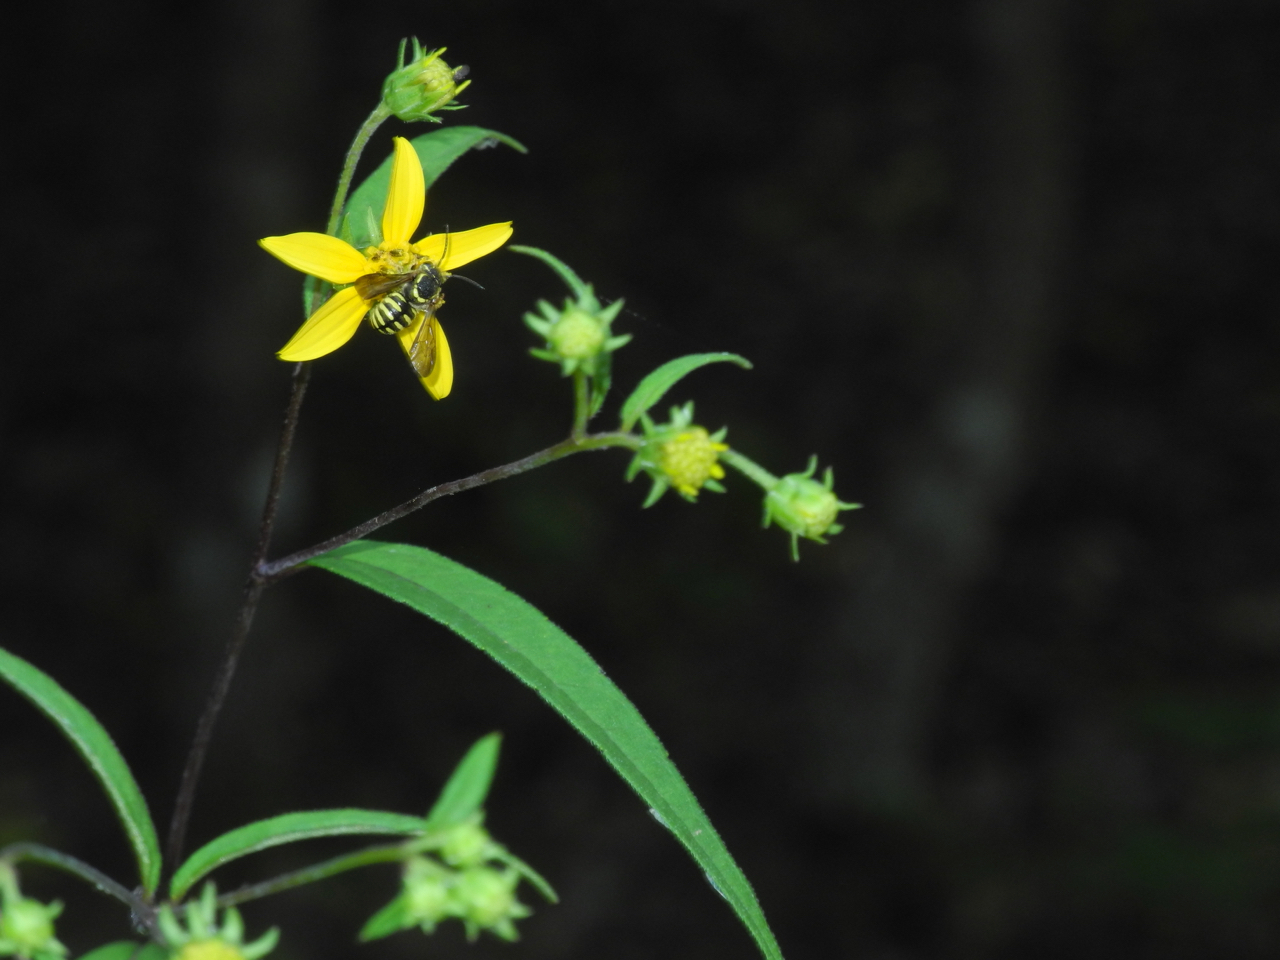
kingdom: Plantae
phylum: Tracheophyta
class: Magnoliopsida
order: Asterales
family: Asteraceae
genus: Helianthus
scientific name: Helianthus microcephalus
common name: Woodland sunflower
